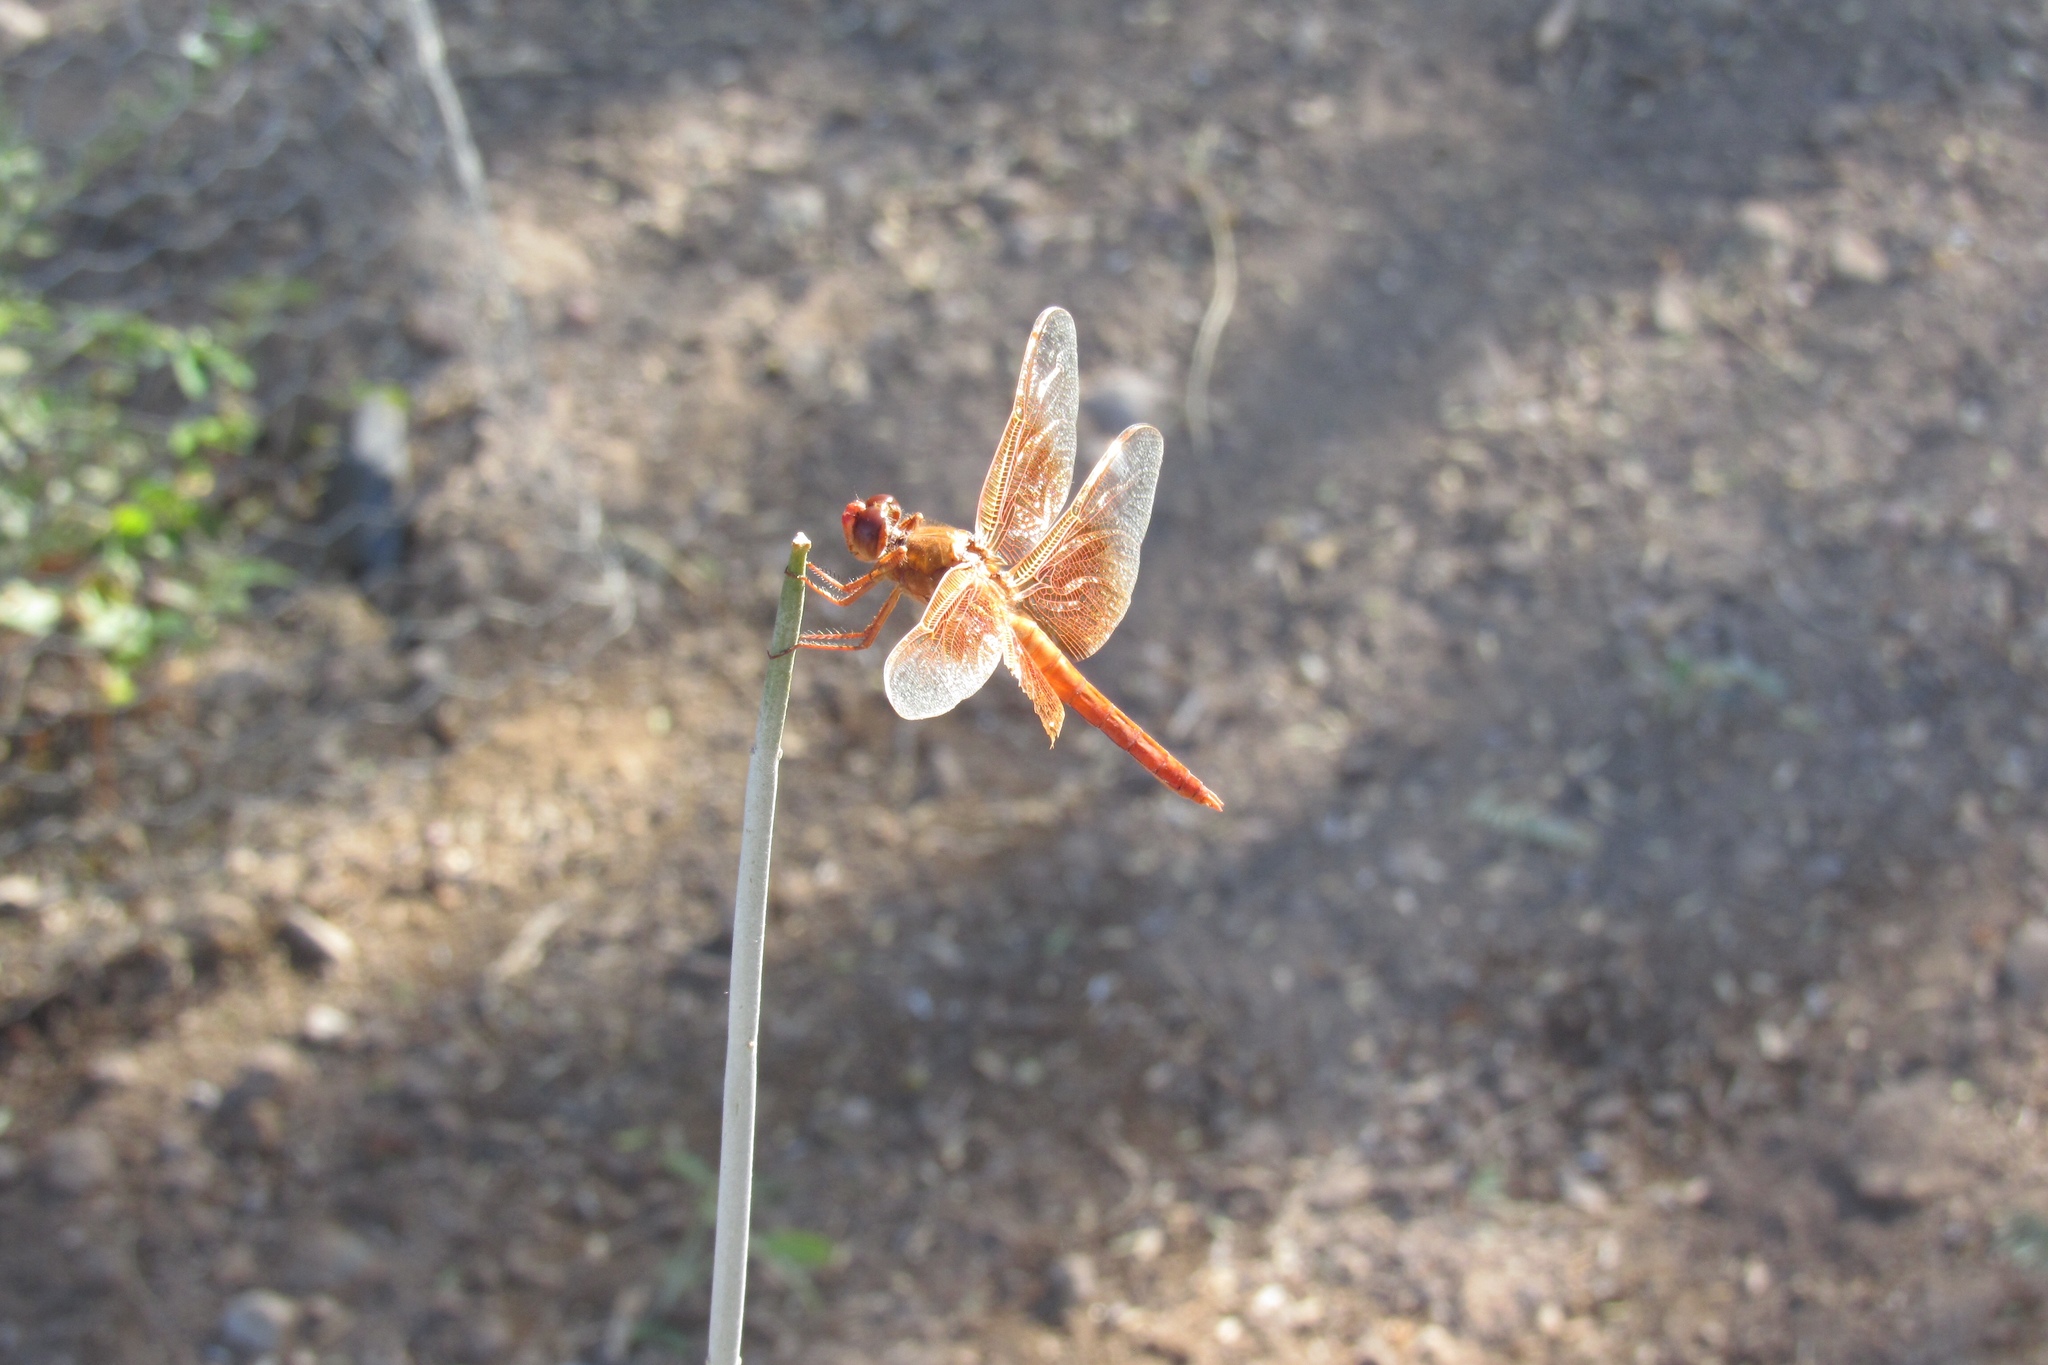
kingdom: Animalia
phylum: Arthropoda
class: Insecta
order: Odonata
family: Libellulidae
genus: Libellula
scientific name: Libellula saturata
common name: Flame skimmer
